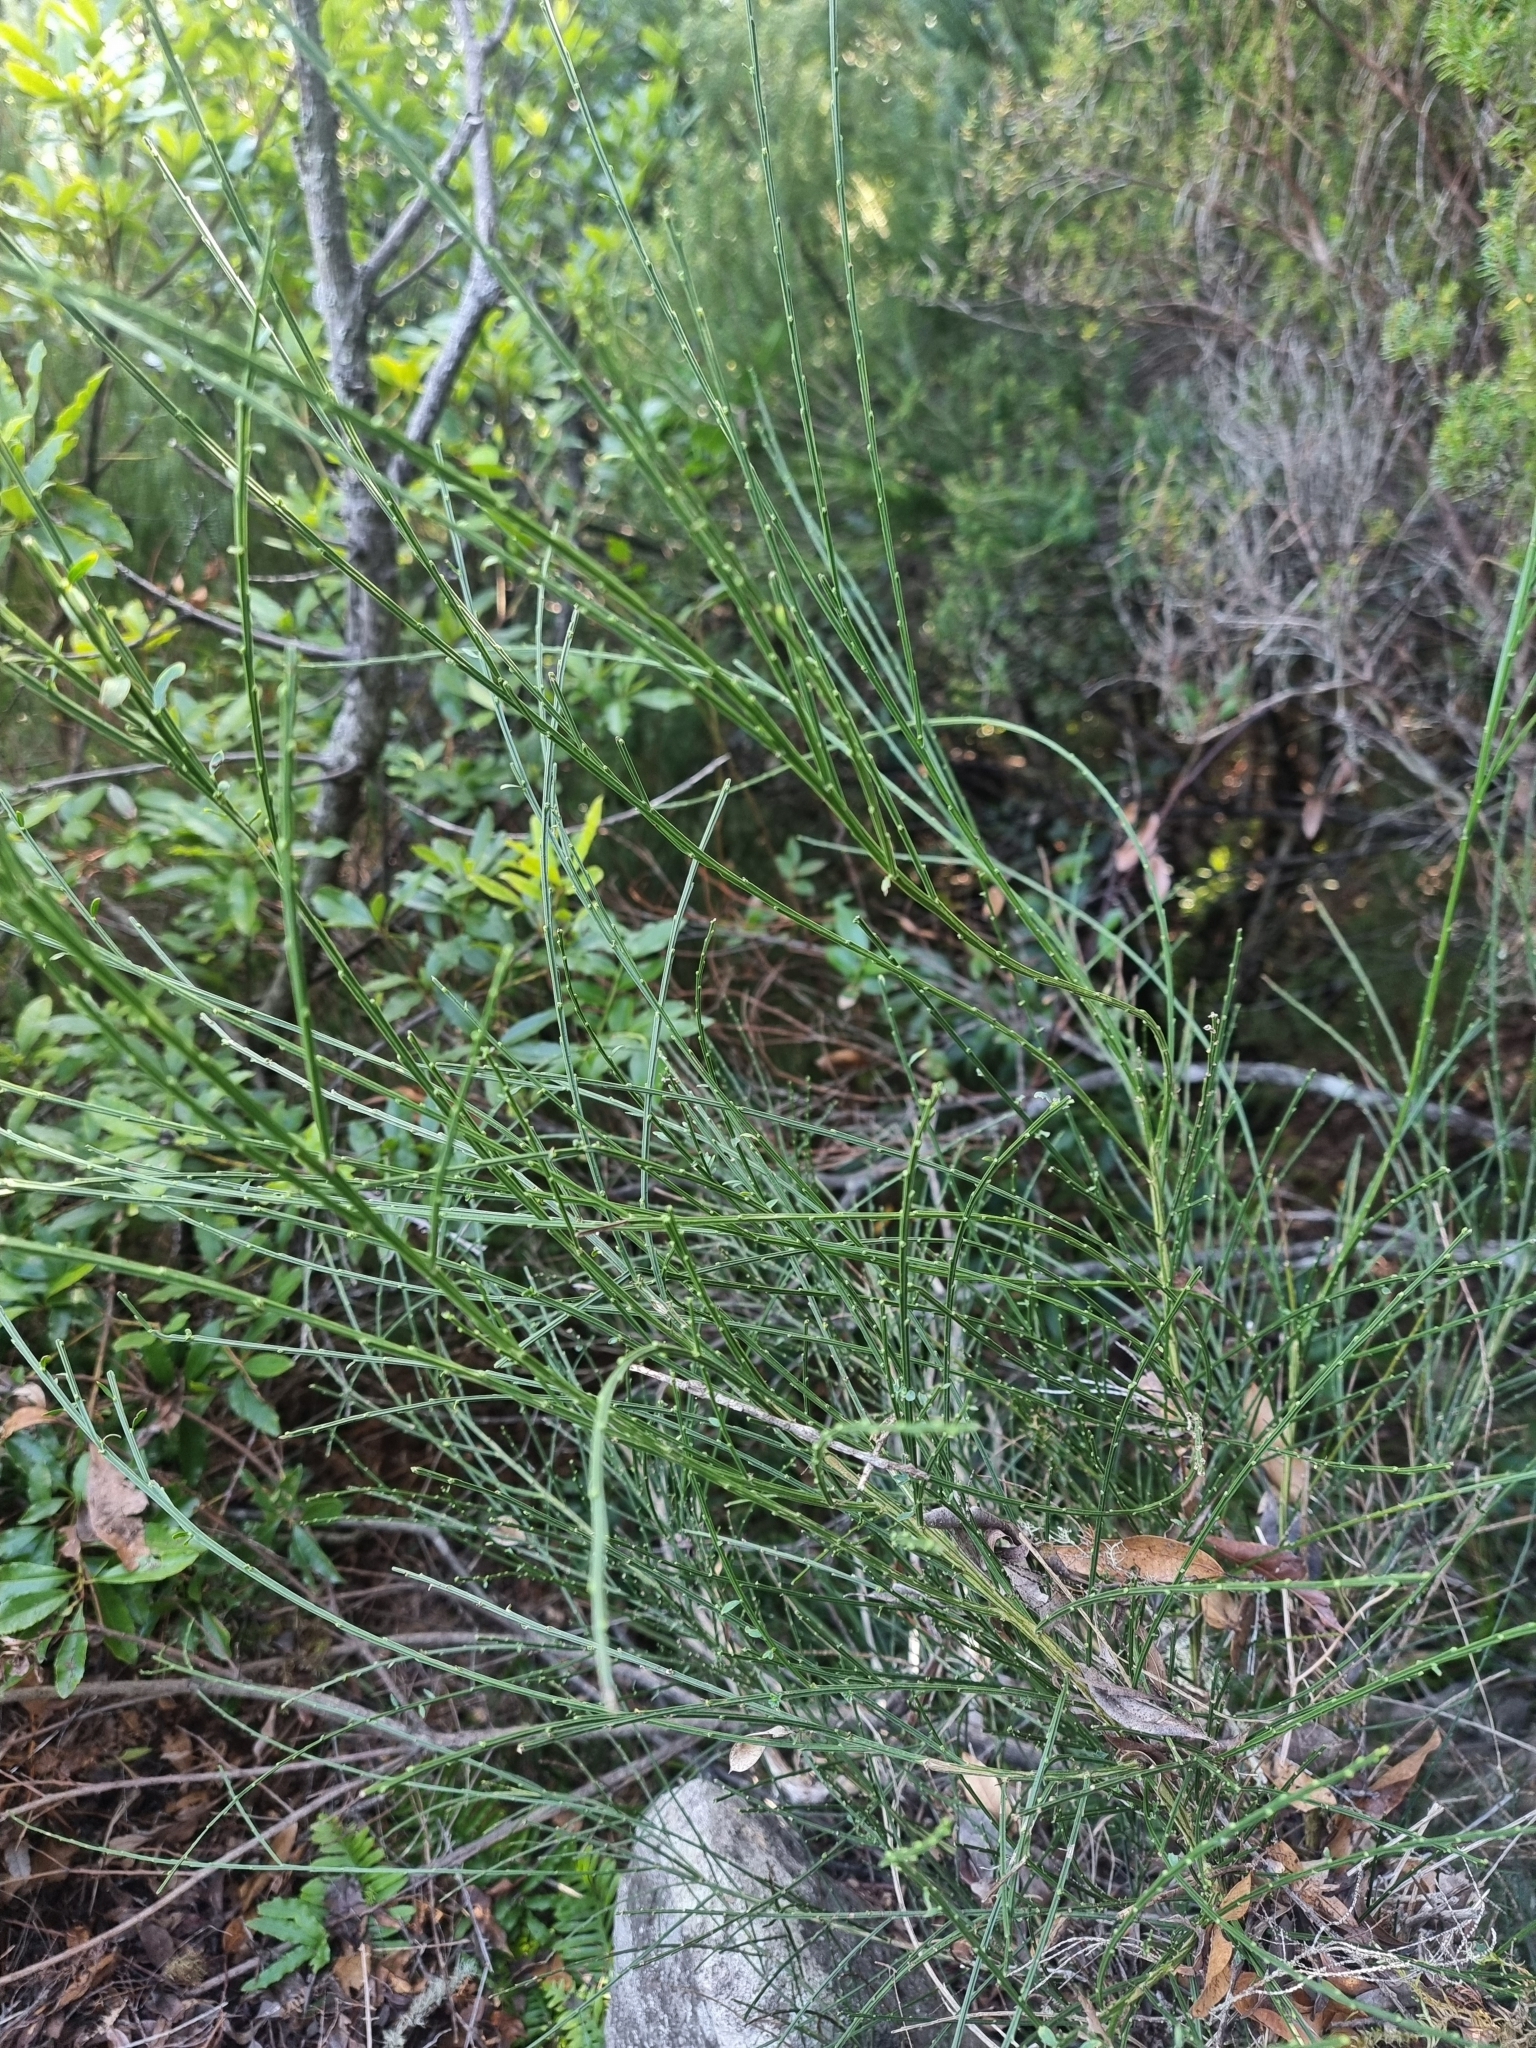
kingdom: Plantae
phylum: Tracheophyta
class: Magnoliopsida
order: Fabales
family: Fabaceae
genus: Cytisus
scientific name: Cytisus scoparius
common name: Scotch broom
